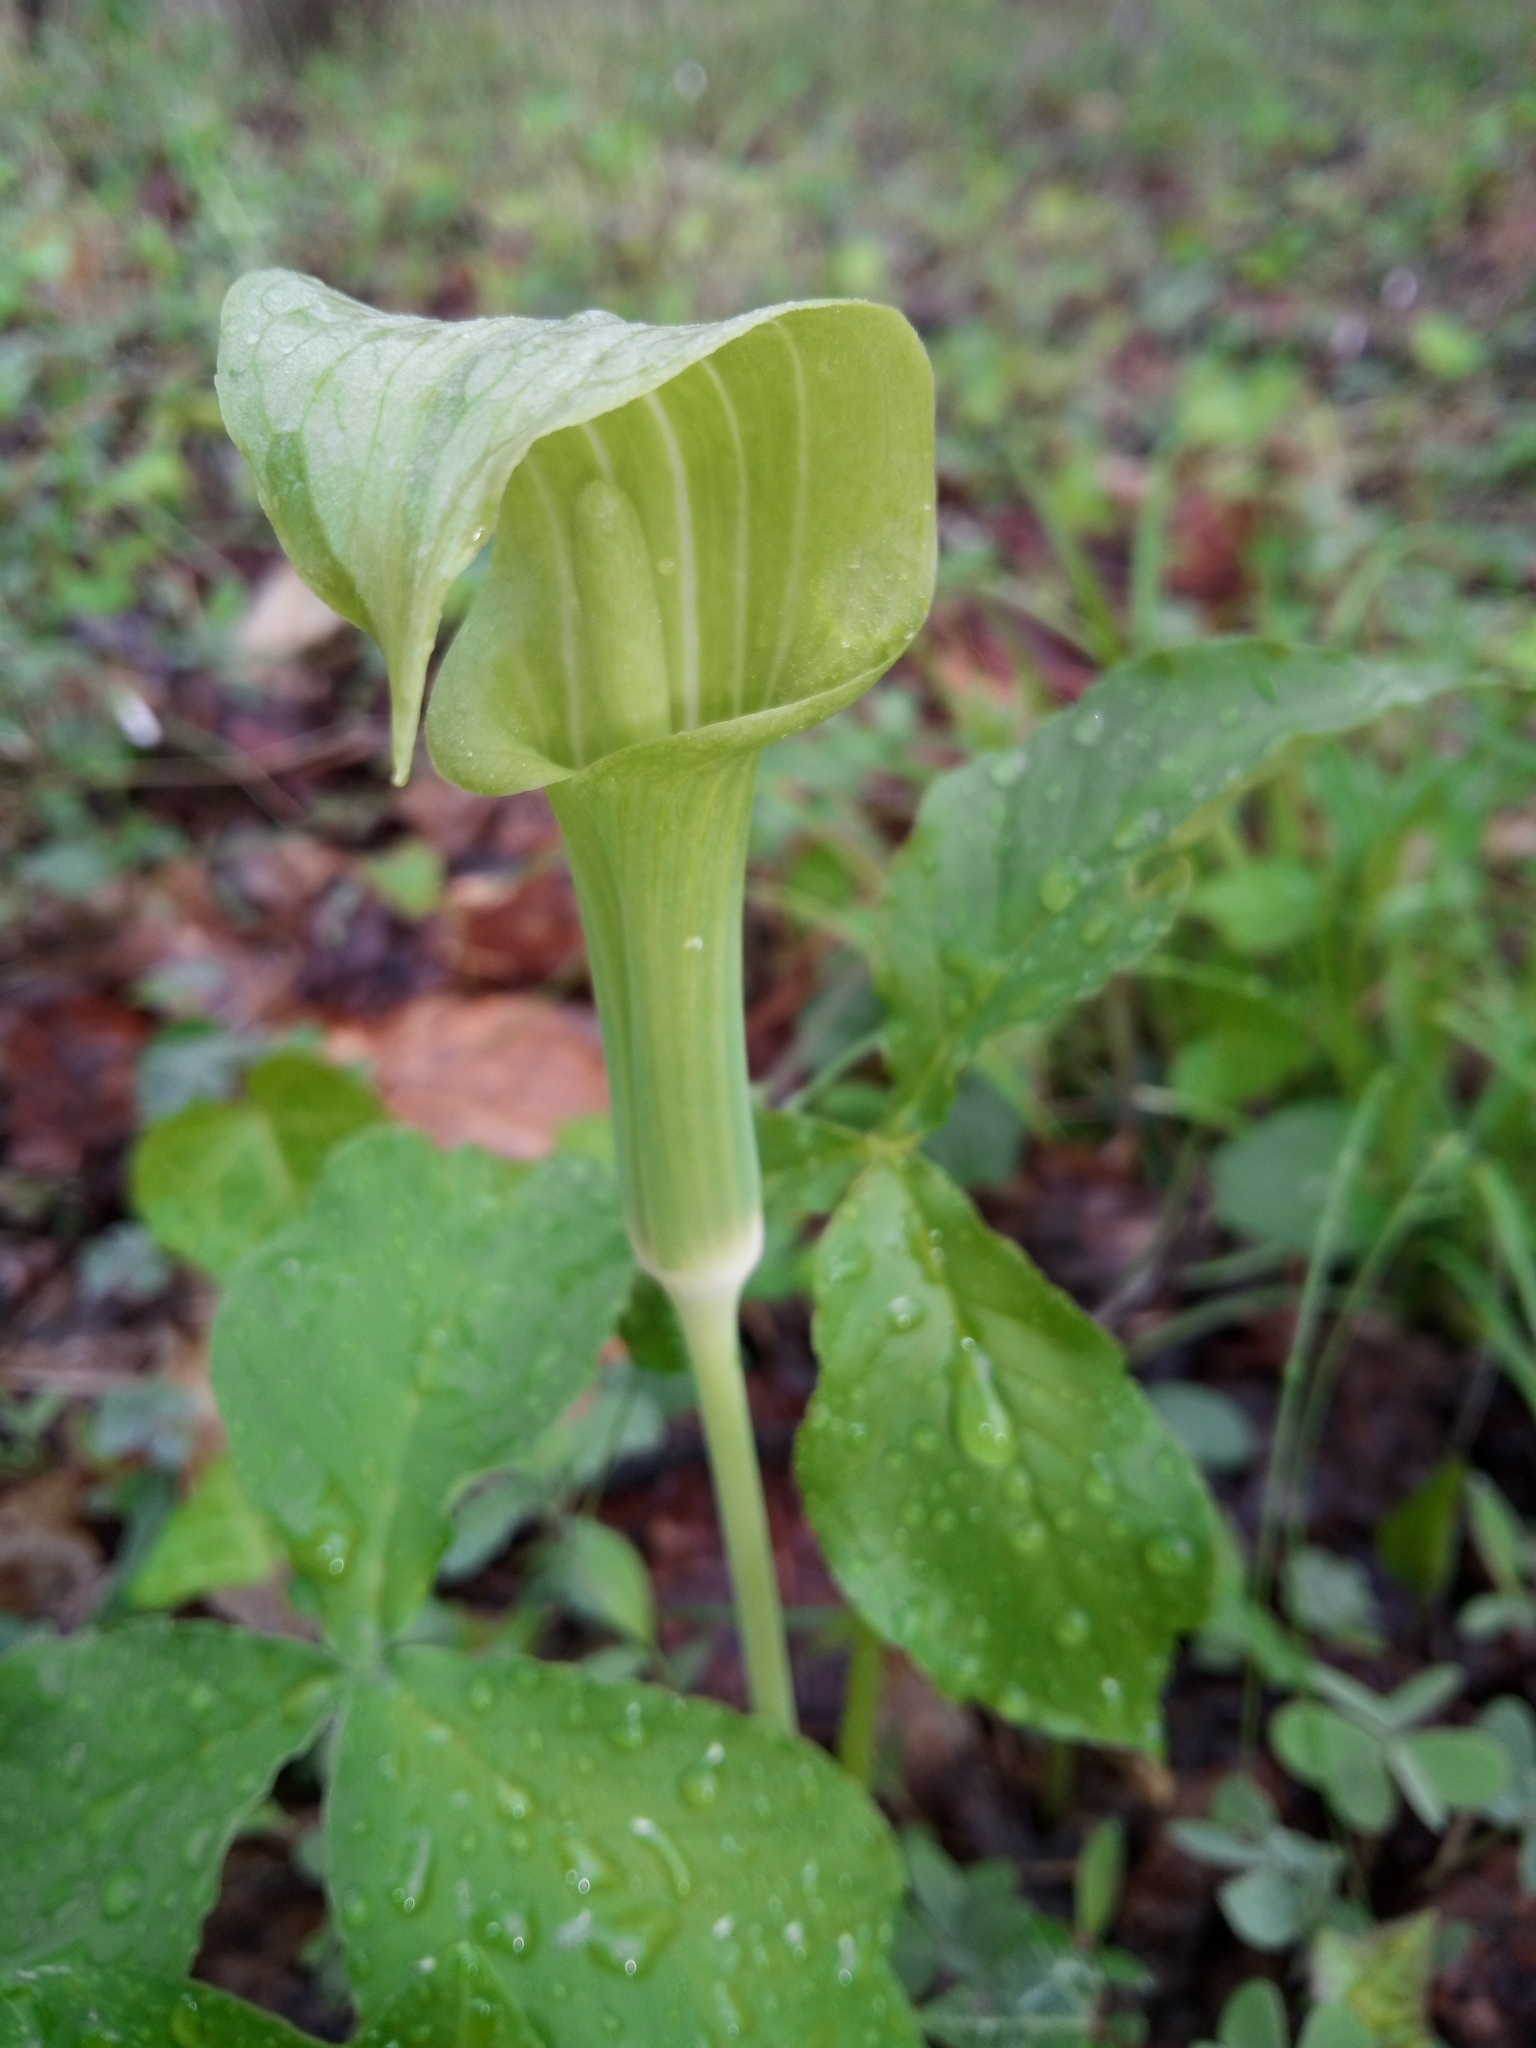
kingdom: Plantae
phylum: Tracheophyta
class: Liliopsida
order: Alismatales
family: Araceae
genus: Arisaema
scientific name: Arisaema triphyllum
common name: Jack-in-the-pulpit
